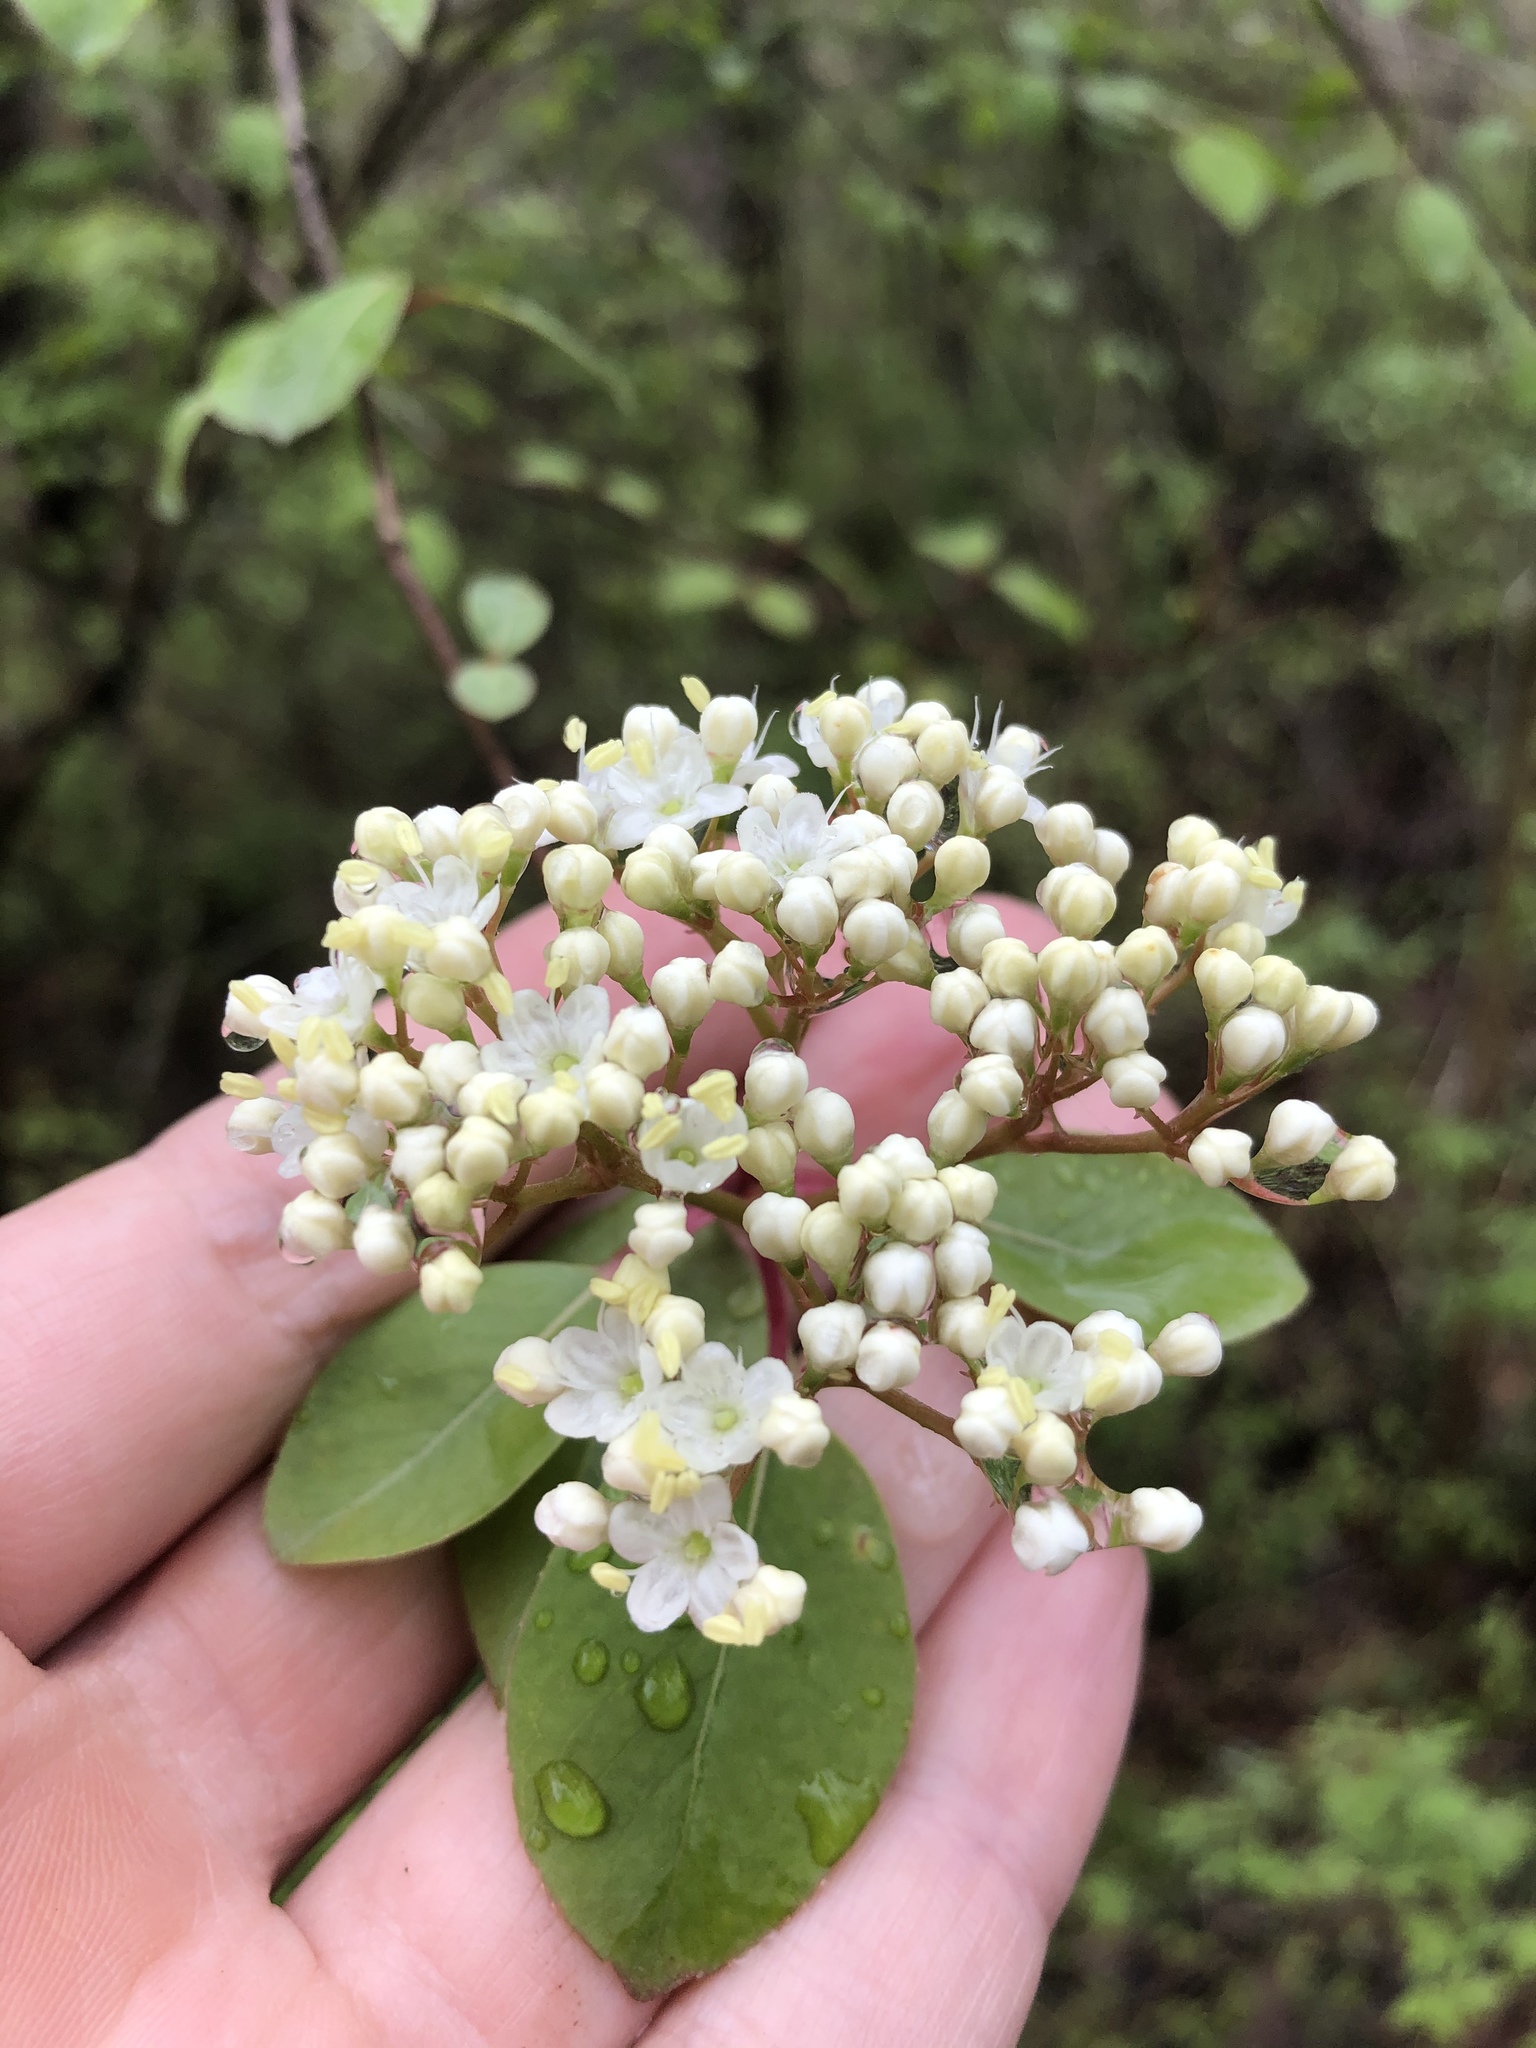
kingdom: Plantae
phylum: Tracheophyta
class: Magnoliopsida
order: Dipsacales
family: Viburnaceae
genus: Viburnum
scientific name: Viburnum prunifolium
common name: Black haw
